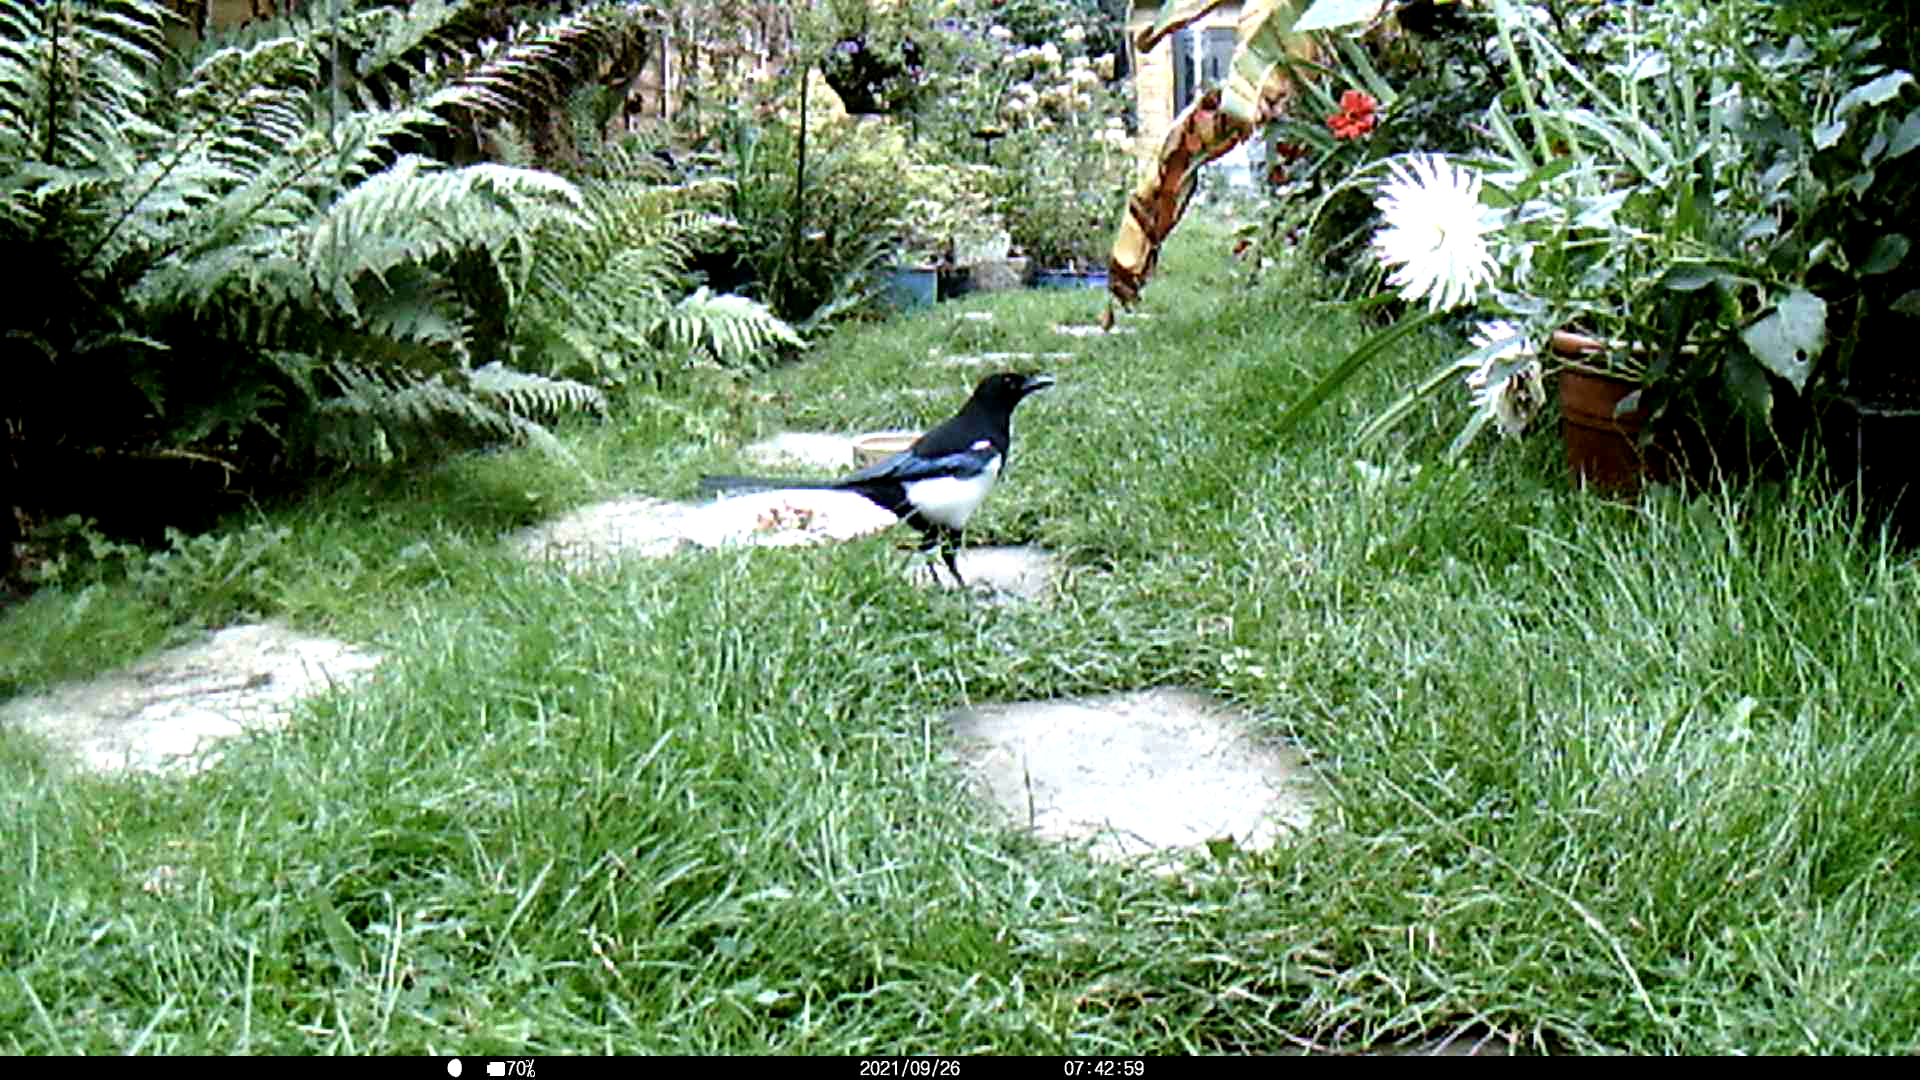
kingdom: Animalia
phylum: Chordata
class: Aves
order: Passeriformes
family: Corvidae
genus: Pica
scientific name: Pica pica
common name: Eurasian magpie
